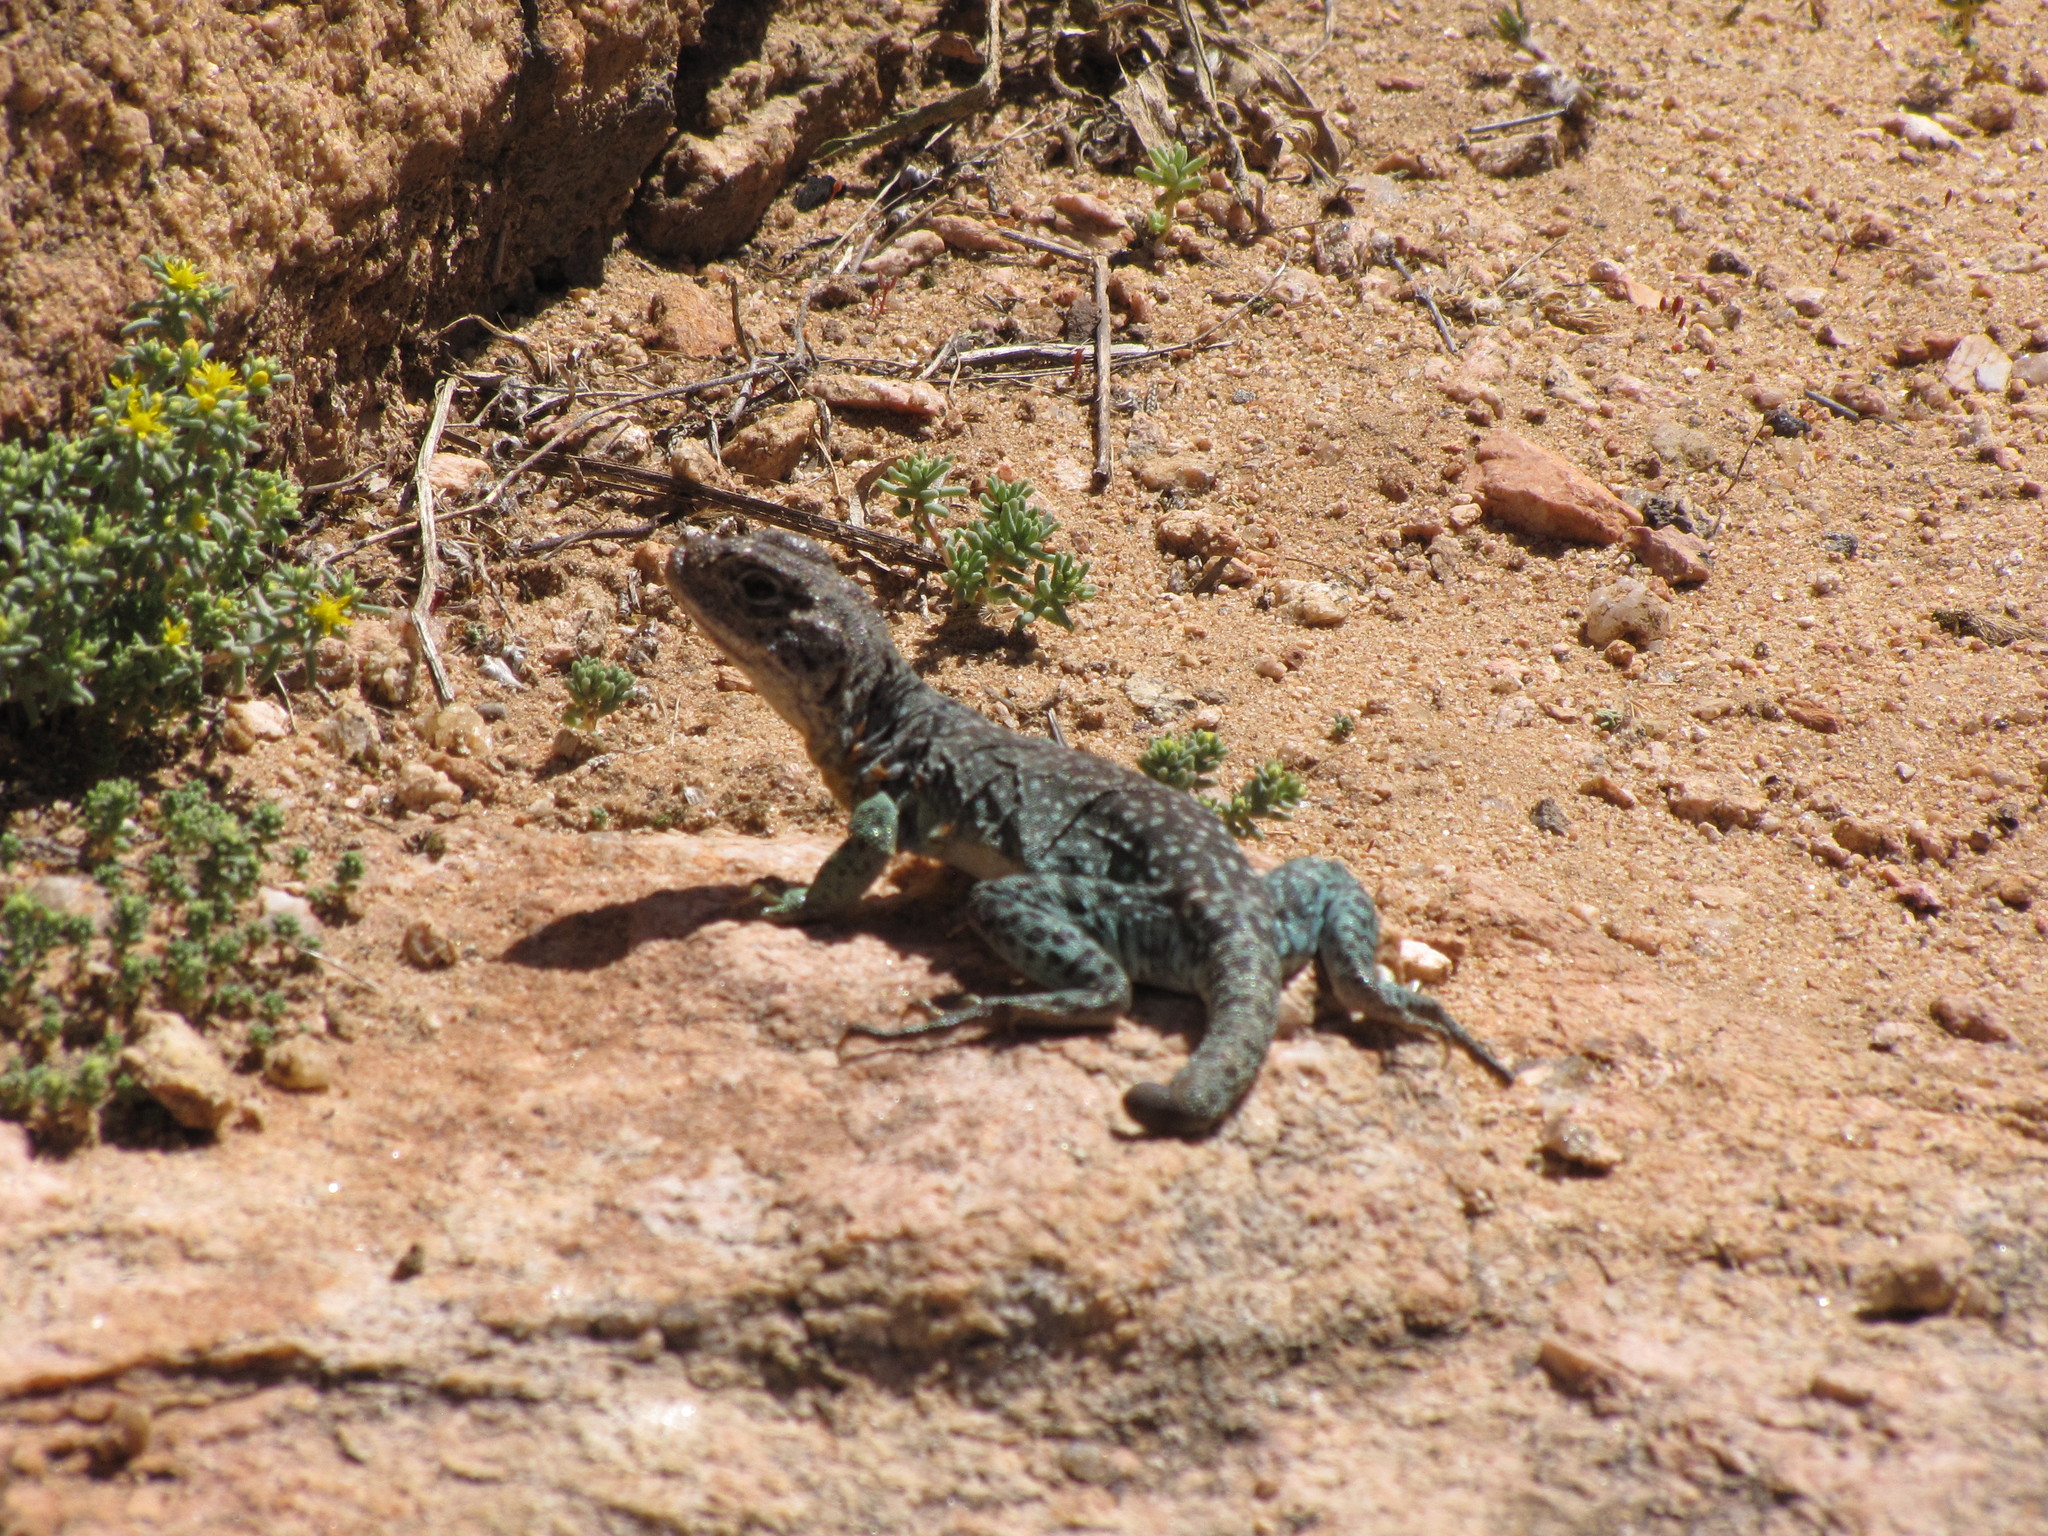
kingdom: Animalia
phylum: Chordata
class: Squamata
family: Crotaphytidae
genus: Crotaphytus
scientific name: Crotaphytus collaris
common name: Collared lizard
